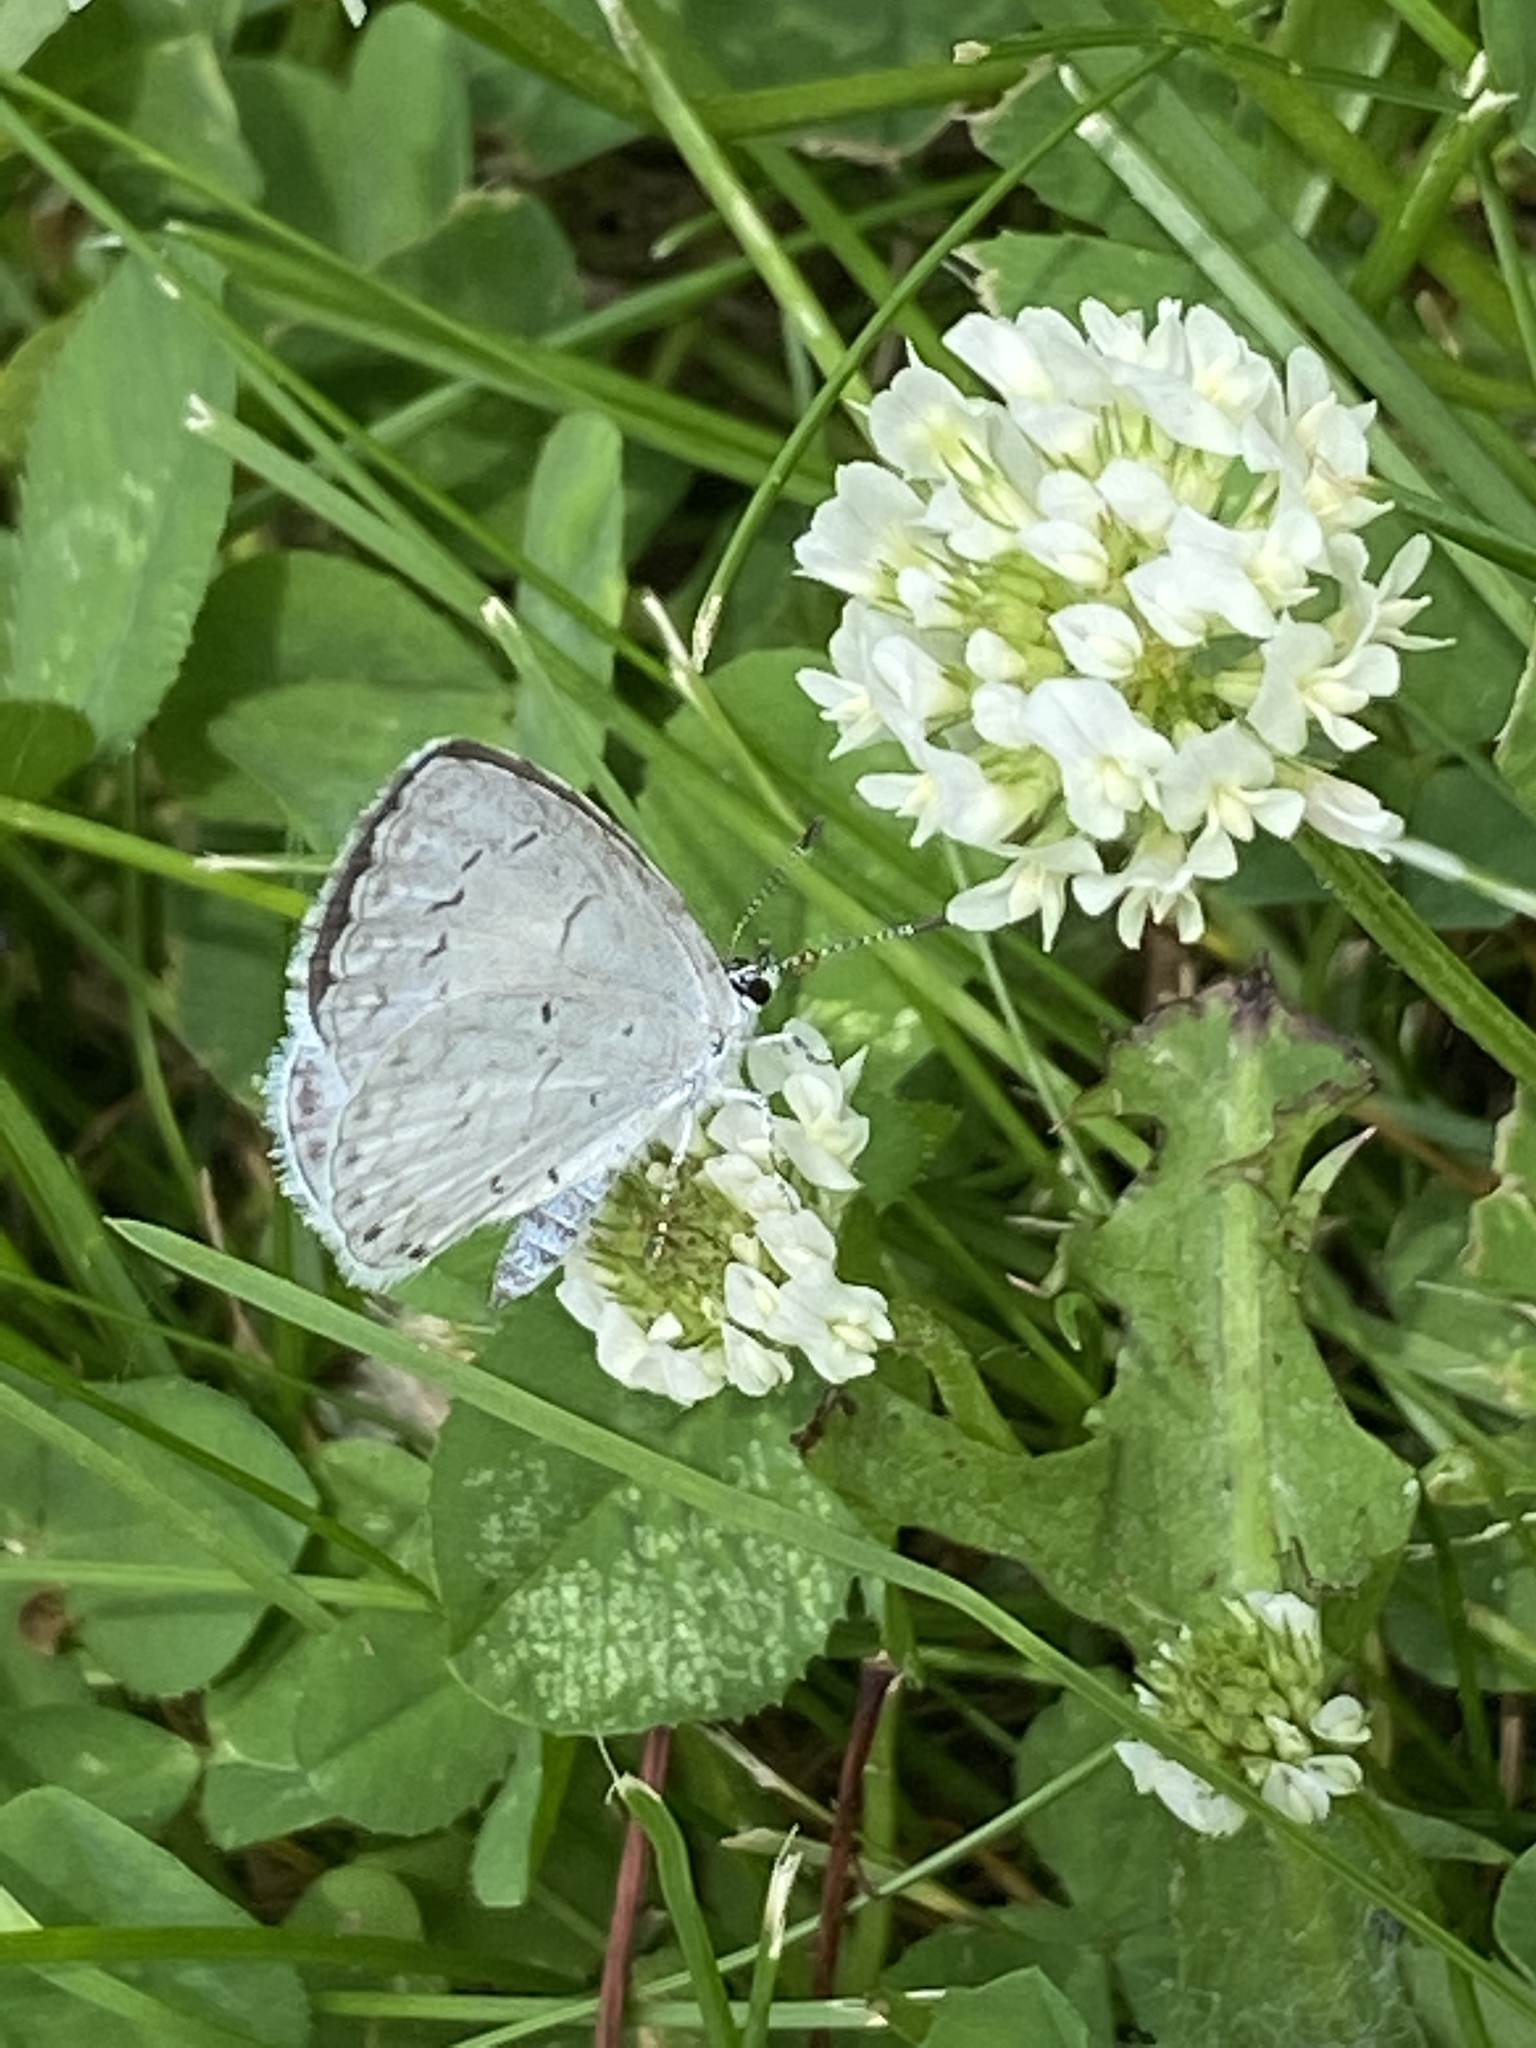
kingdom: Animalia
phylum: Arthropoda
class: Insecta
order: Lepidoptera
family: Lycaenidae
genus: Cyaniris
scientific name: Cyaniris neglecta
